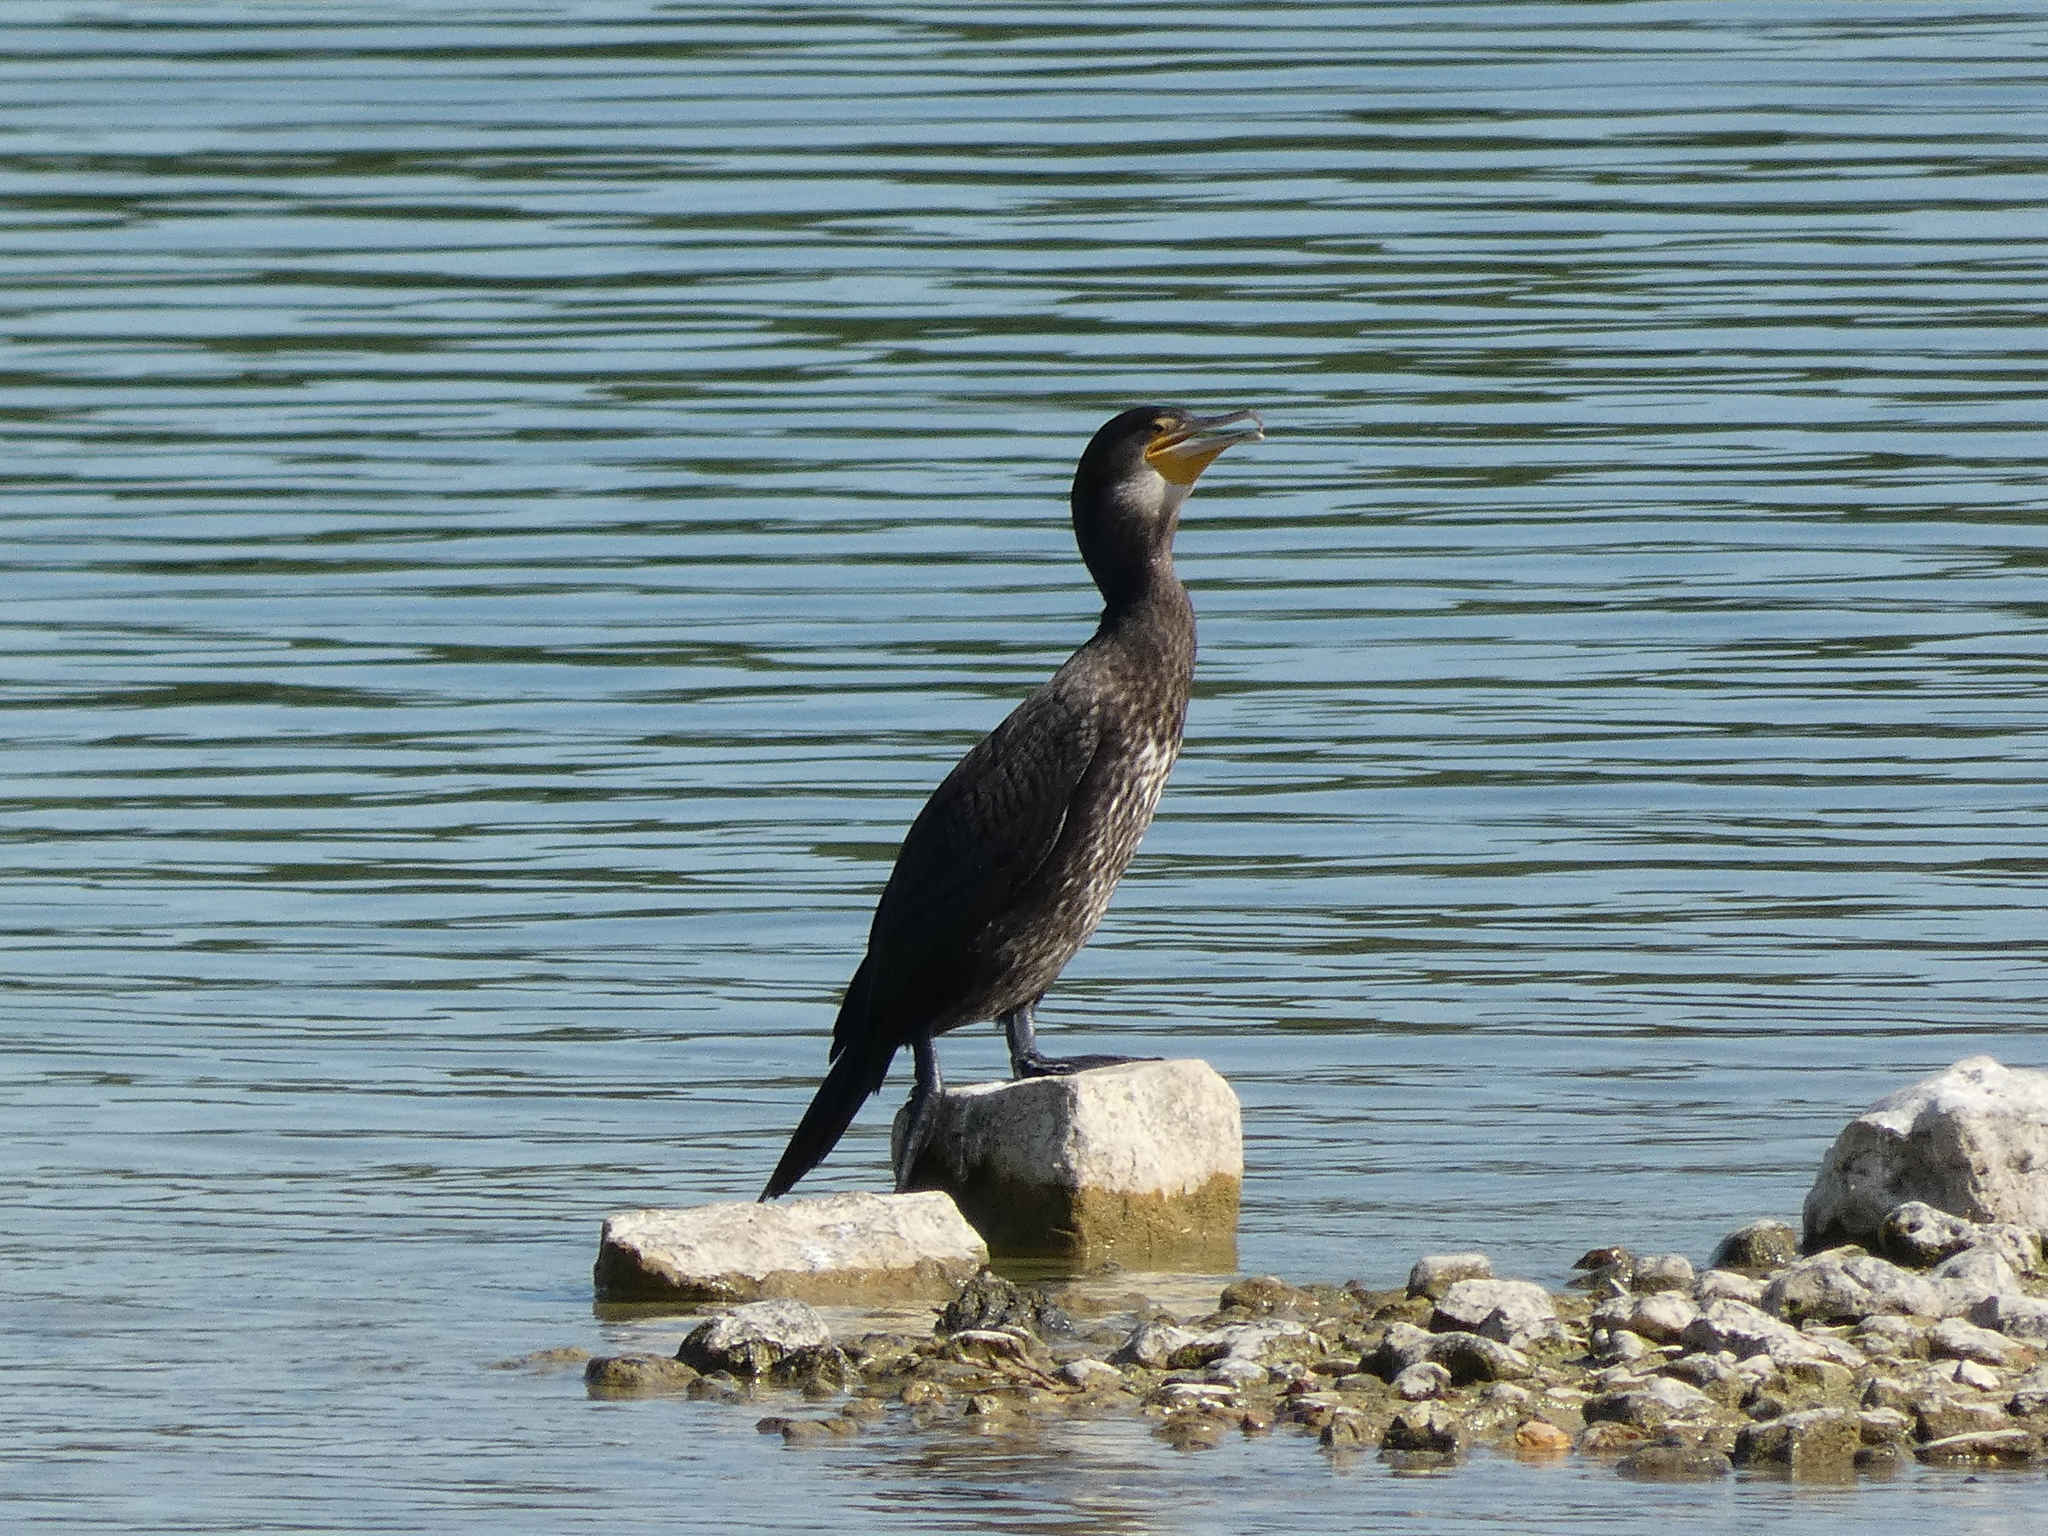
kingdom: Animalia
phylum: Chordata
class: Aves
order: Suliformes
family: Phalacrocoracidae
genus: Phalacrocorax
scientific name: Phalacrocorax carbo
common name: Great cormorant
